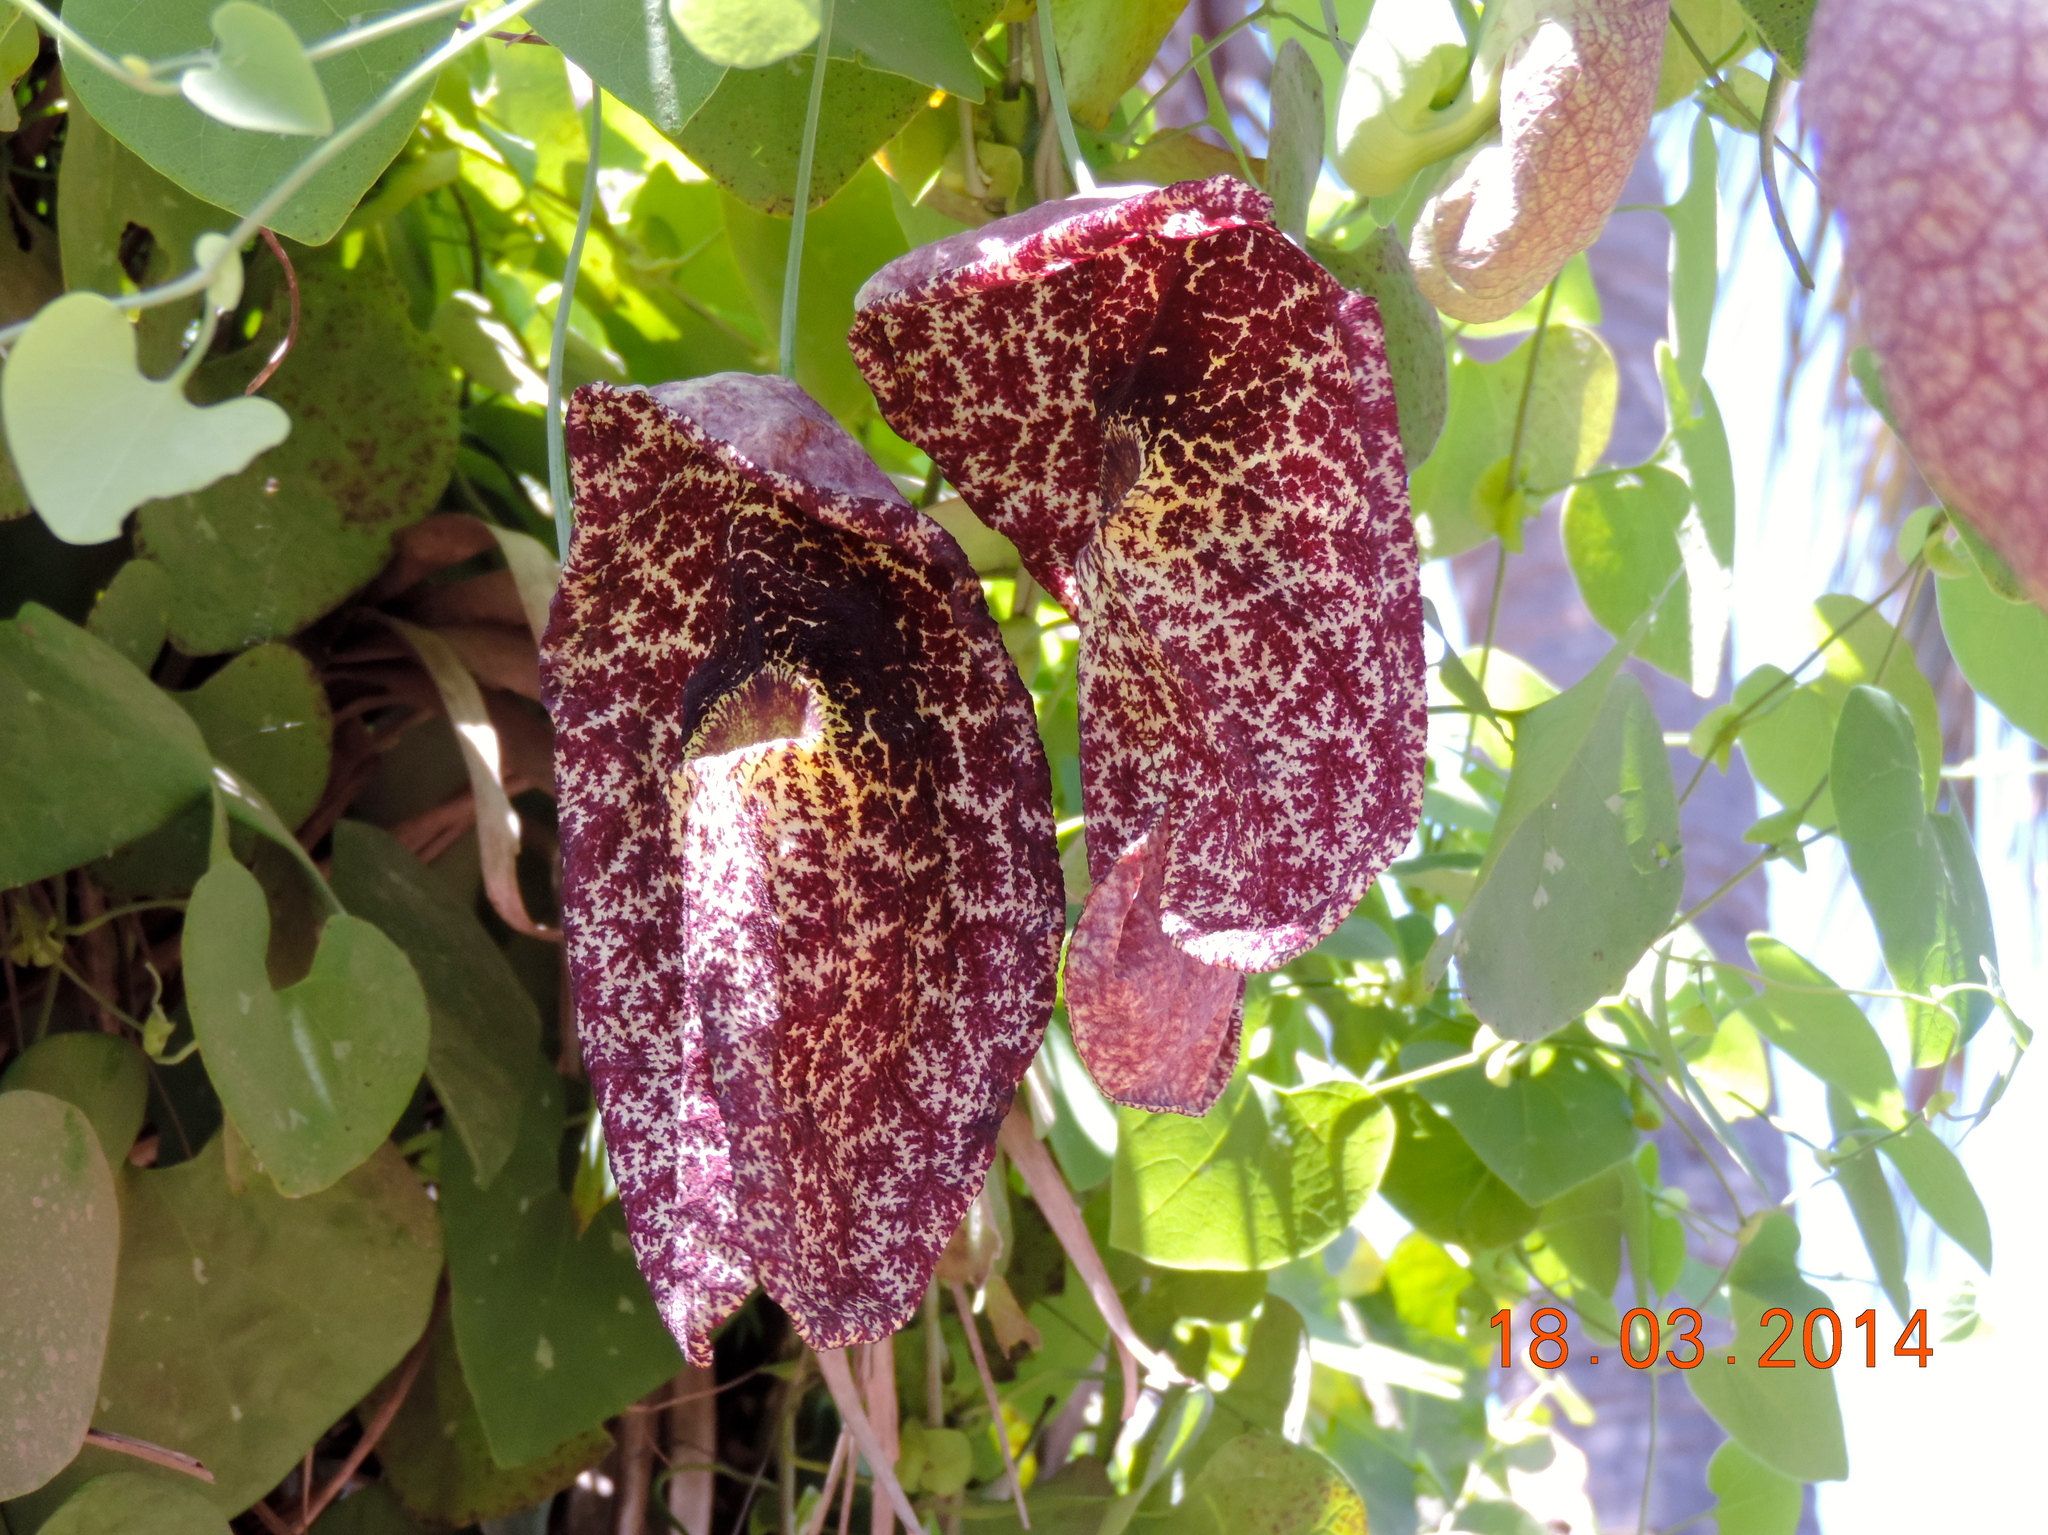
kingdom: Plantae
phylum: Tracheophyta
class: Magnoliopsida
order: Piperales
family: Aristolochiaceae
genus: Aristolochia
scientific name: Aristolochia gigantea
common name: Duckflower
